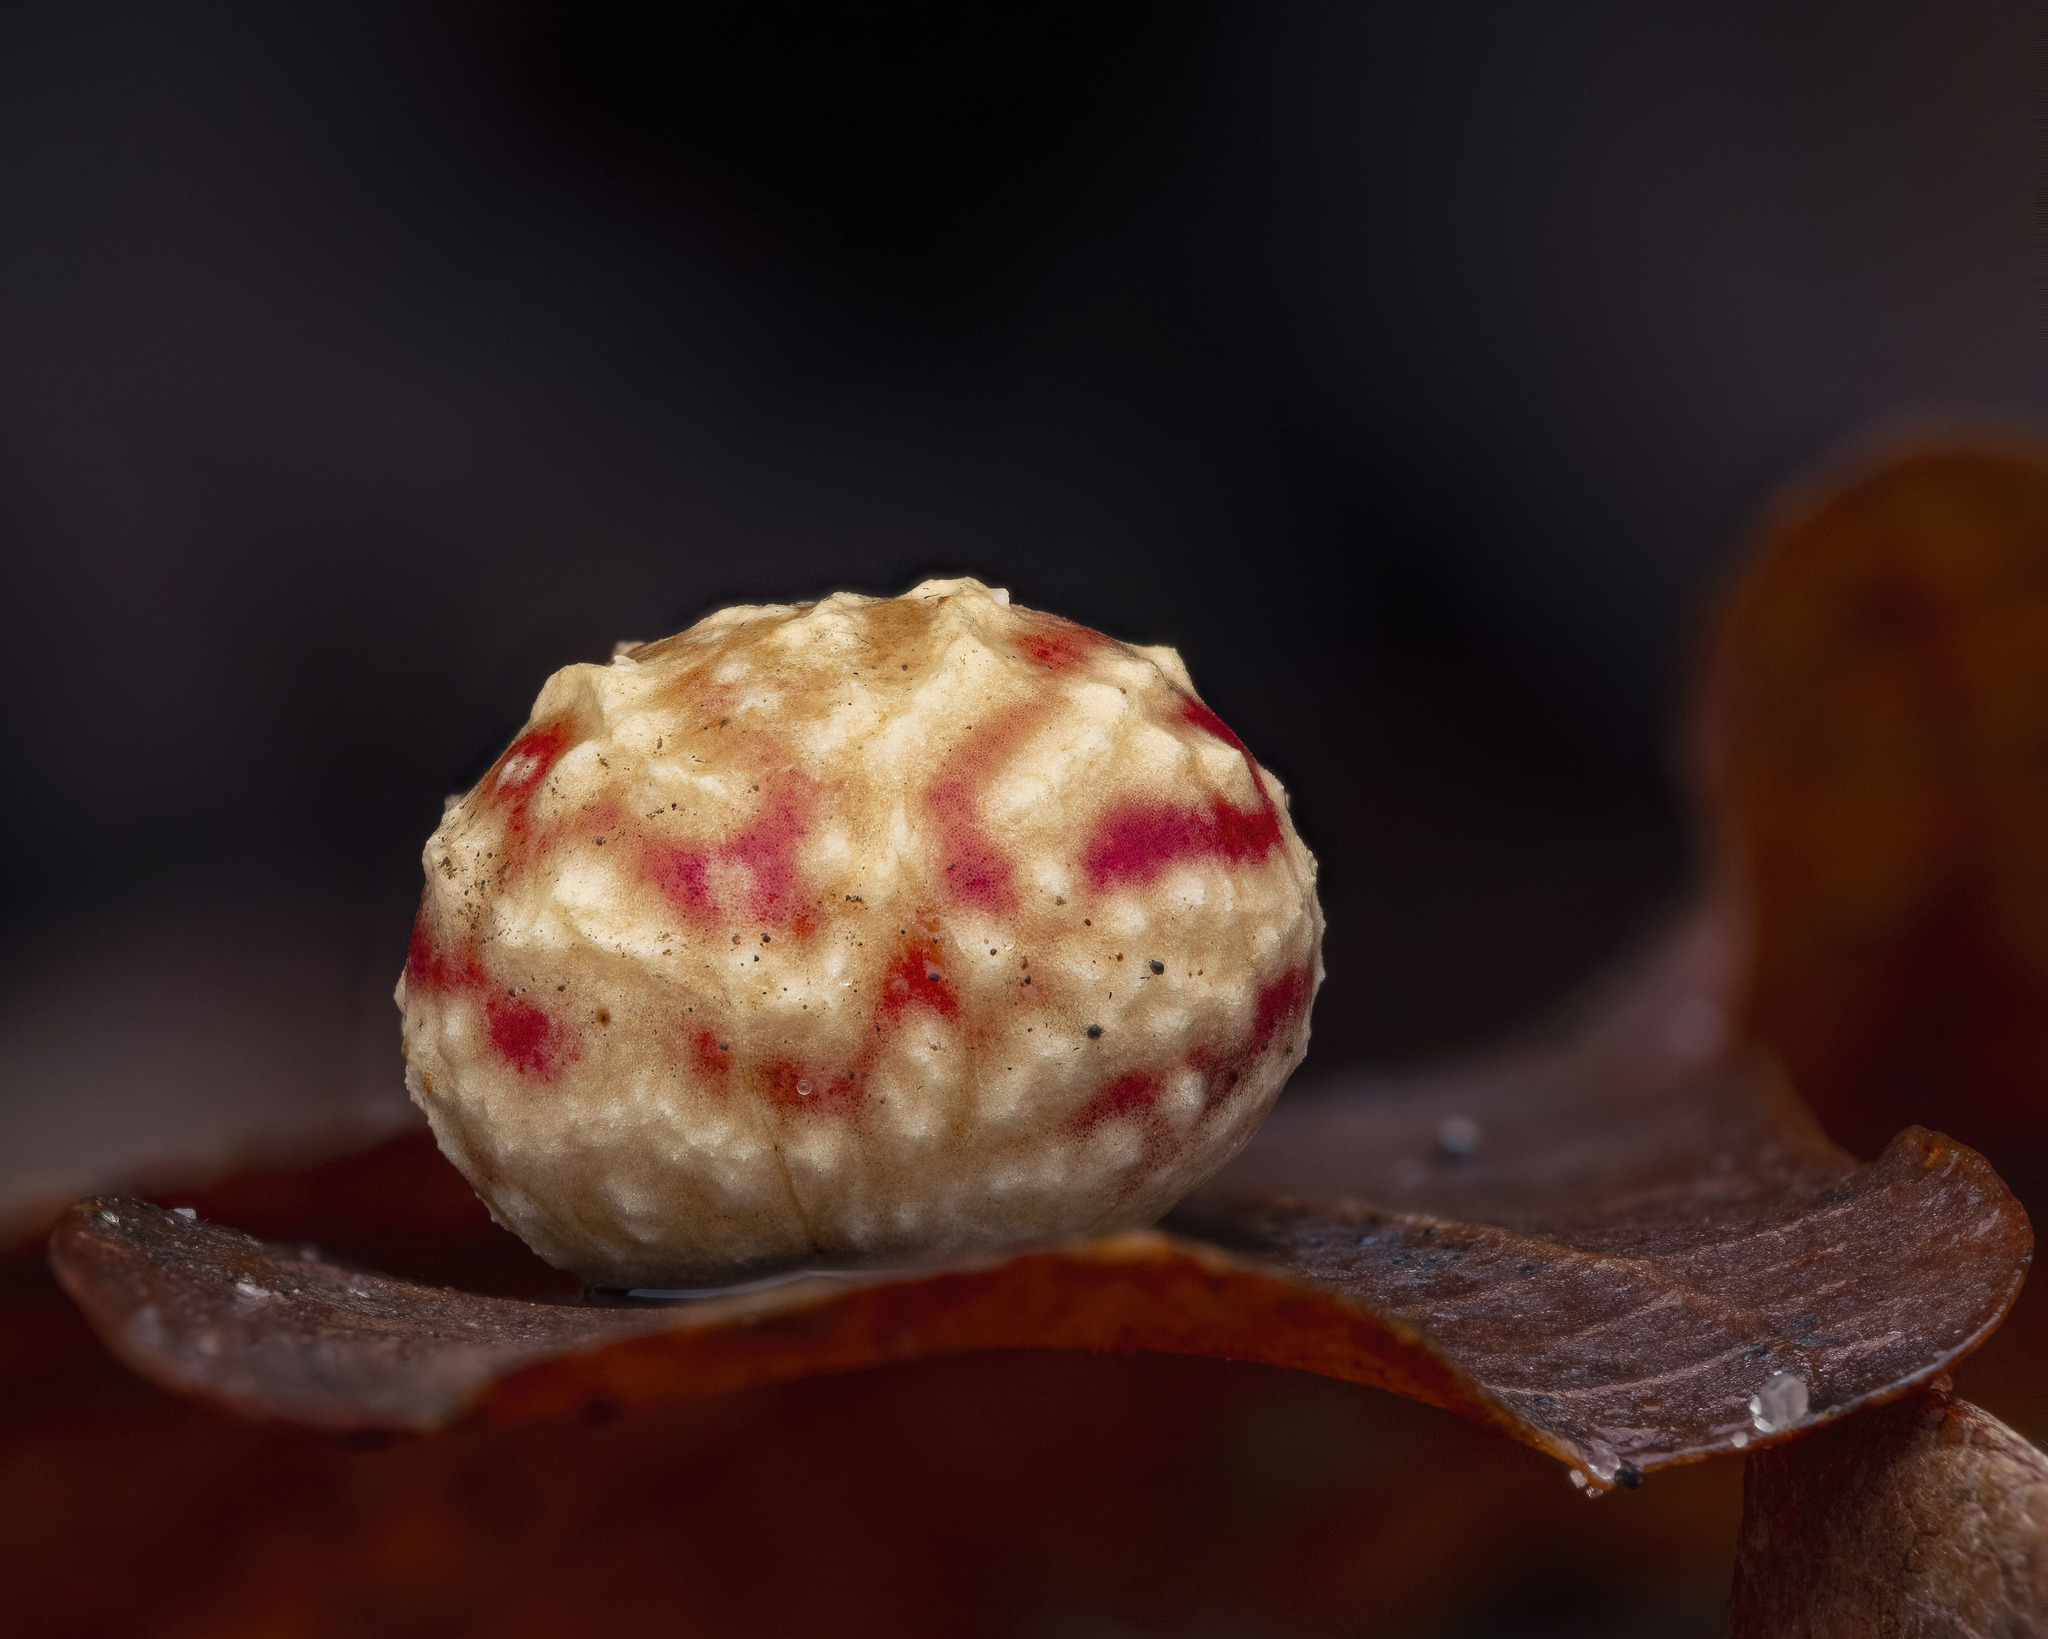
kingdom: Animalia
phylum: Arthropoda
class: Insecta
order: Hymenoptera
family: Cynipidae
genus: Cynips
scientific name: Cynips longiventris
